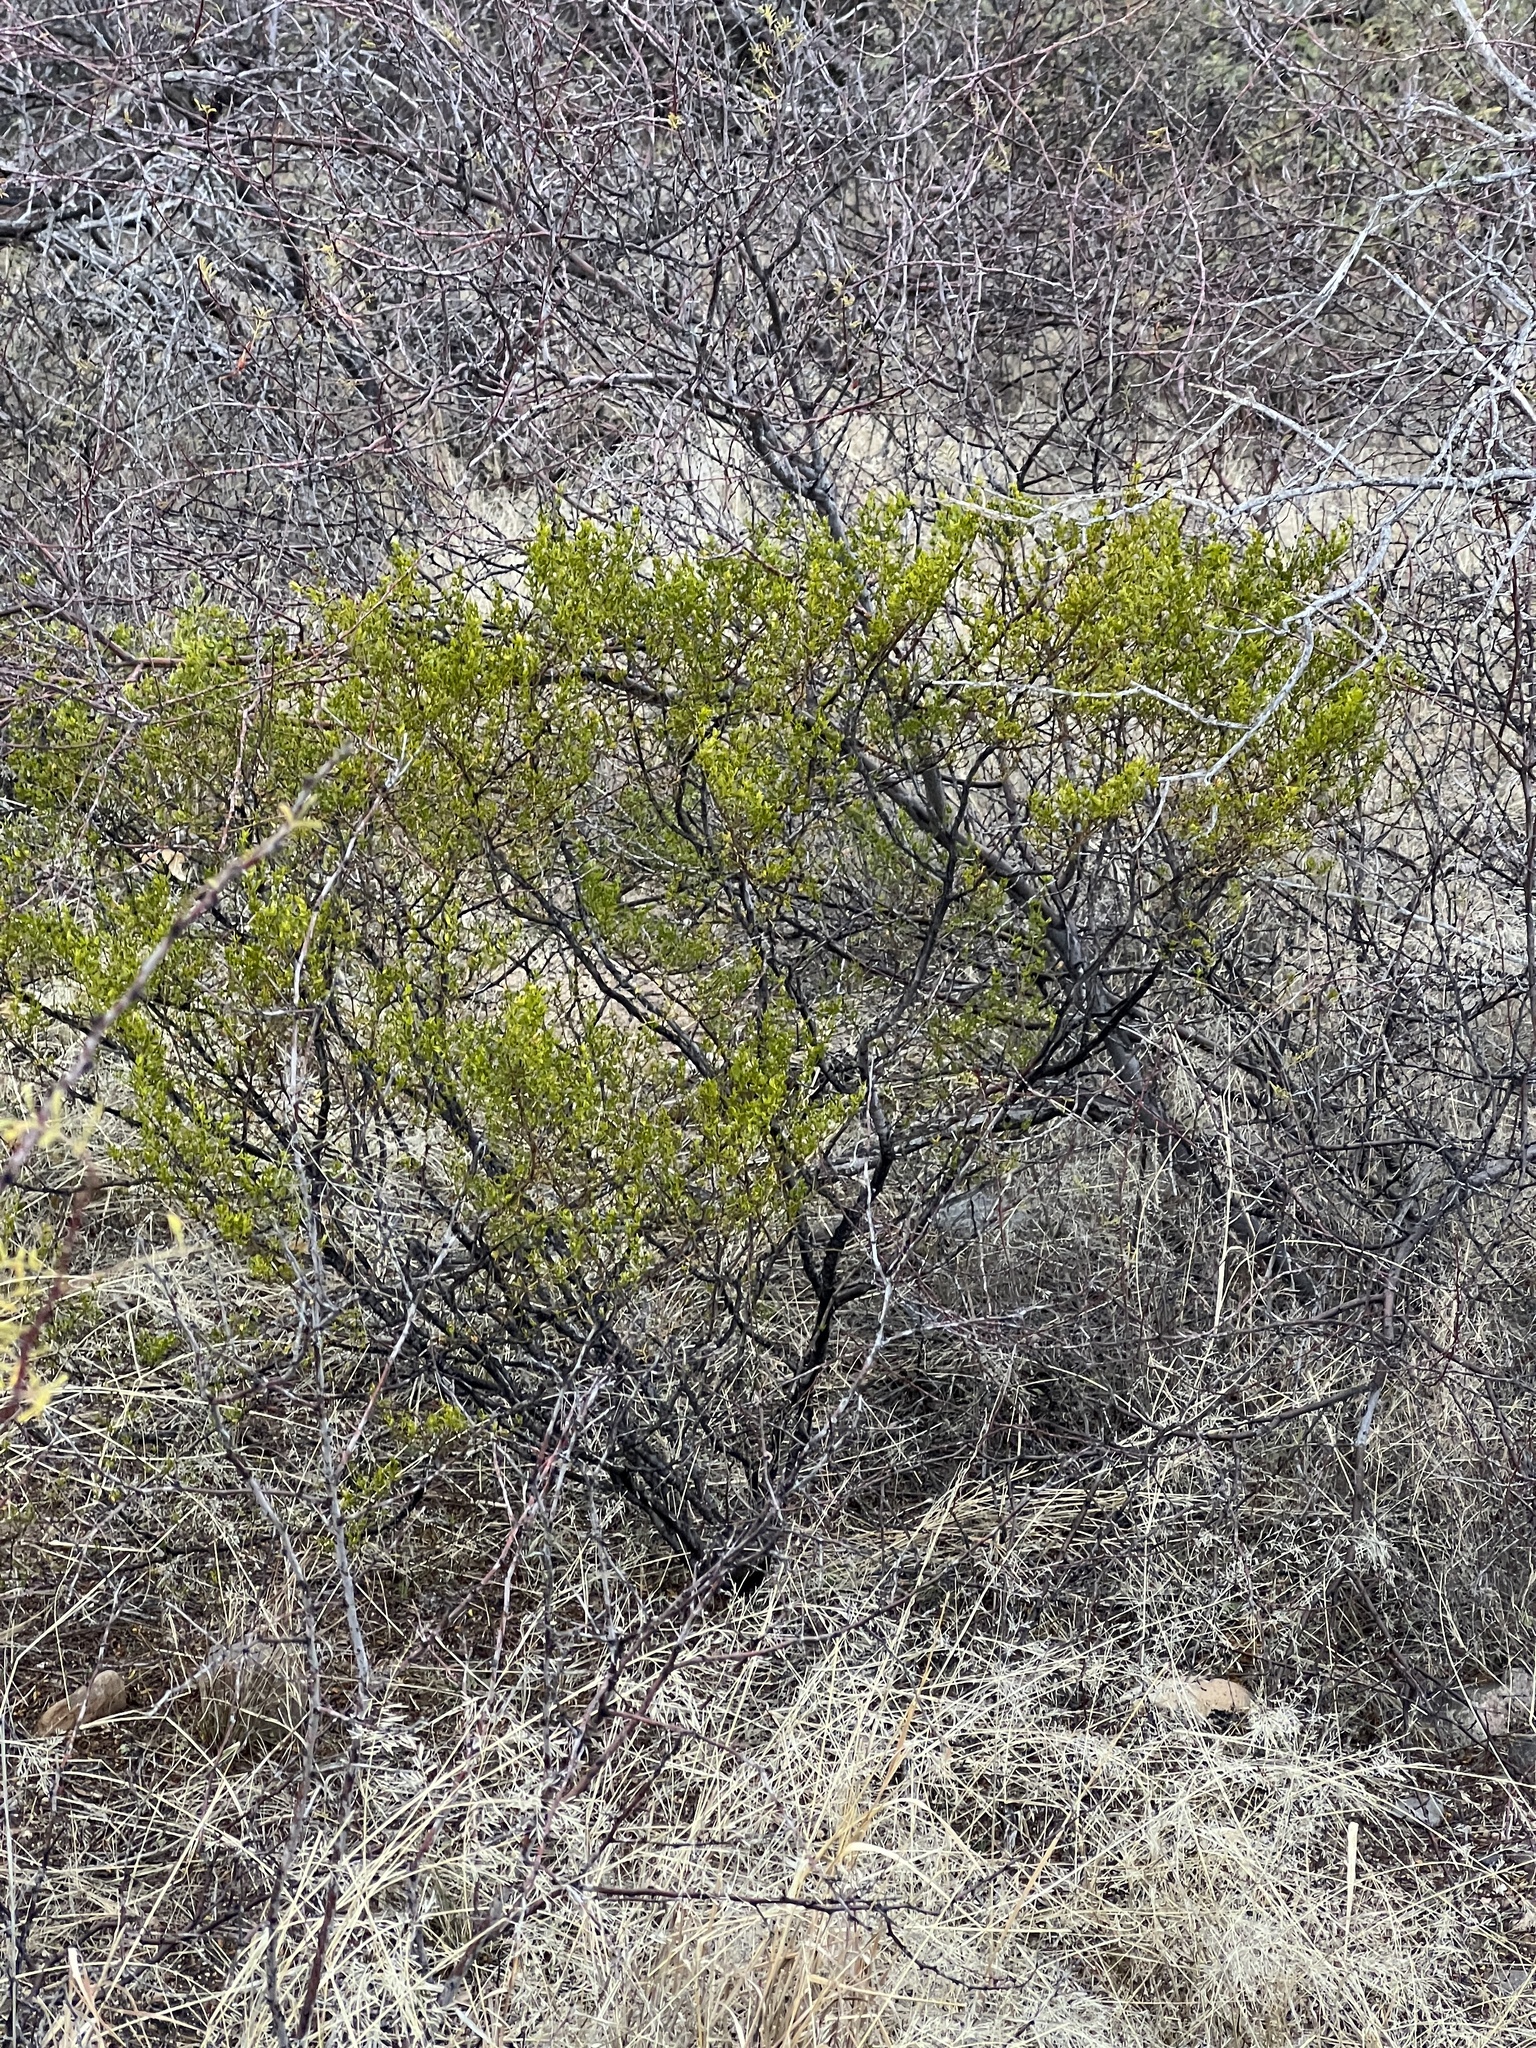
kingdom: Plantae
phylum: Tracheophyta
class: Magnoliopsida
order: Zygophyllales
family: Zygophyllaceae
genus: Larrea
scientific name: Larrea tridentata
